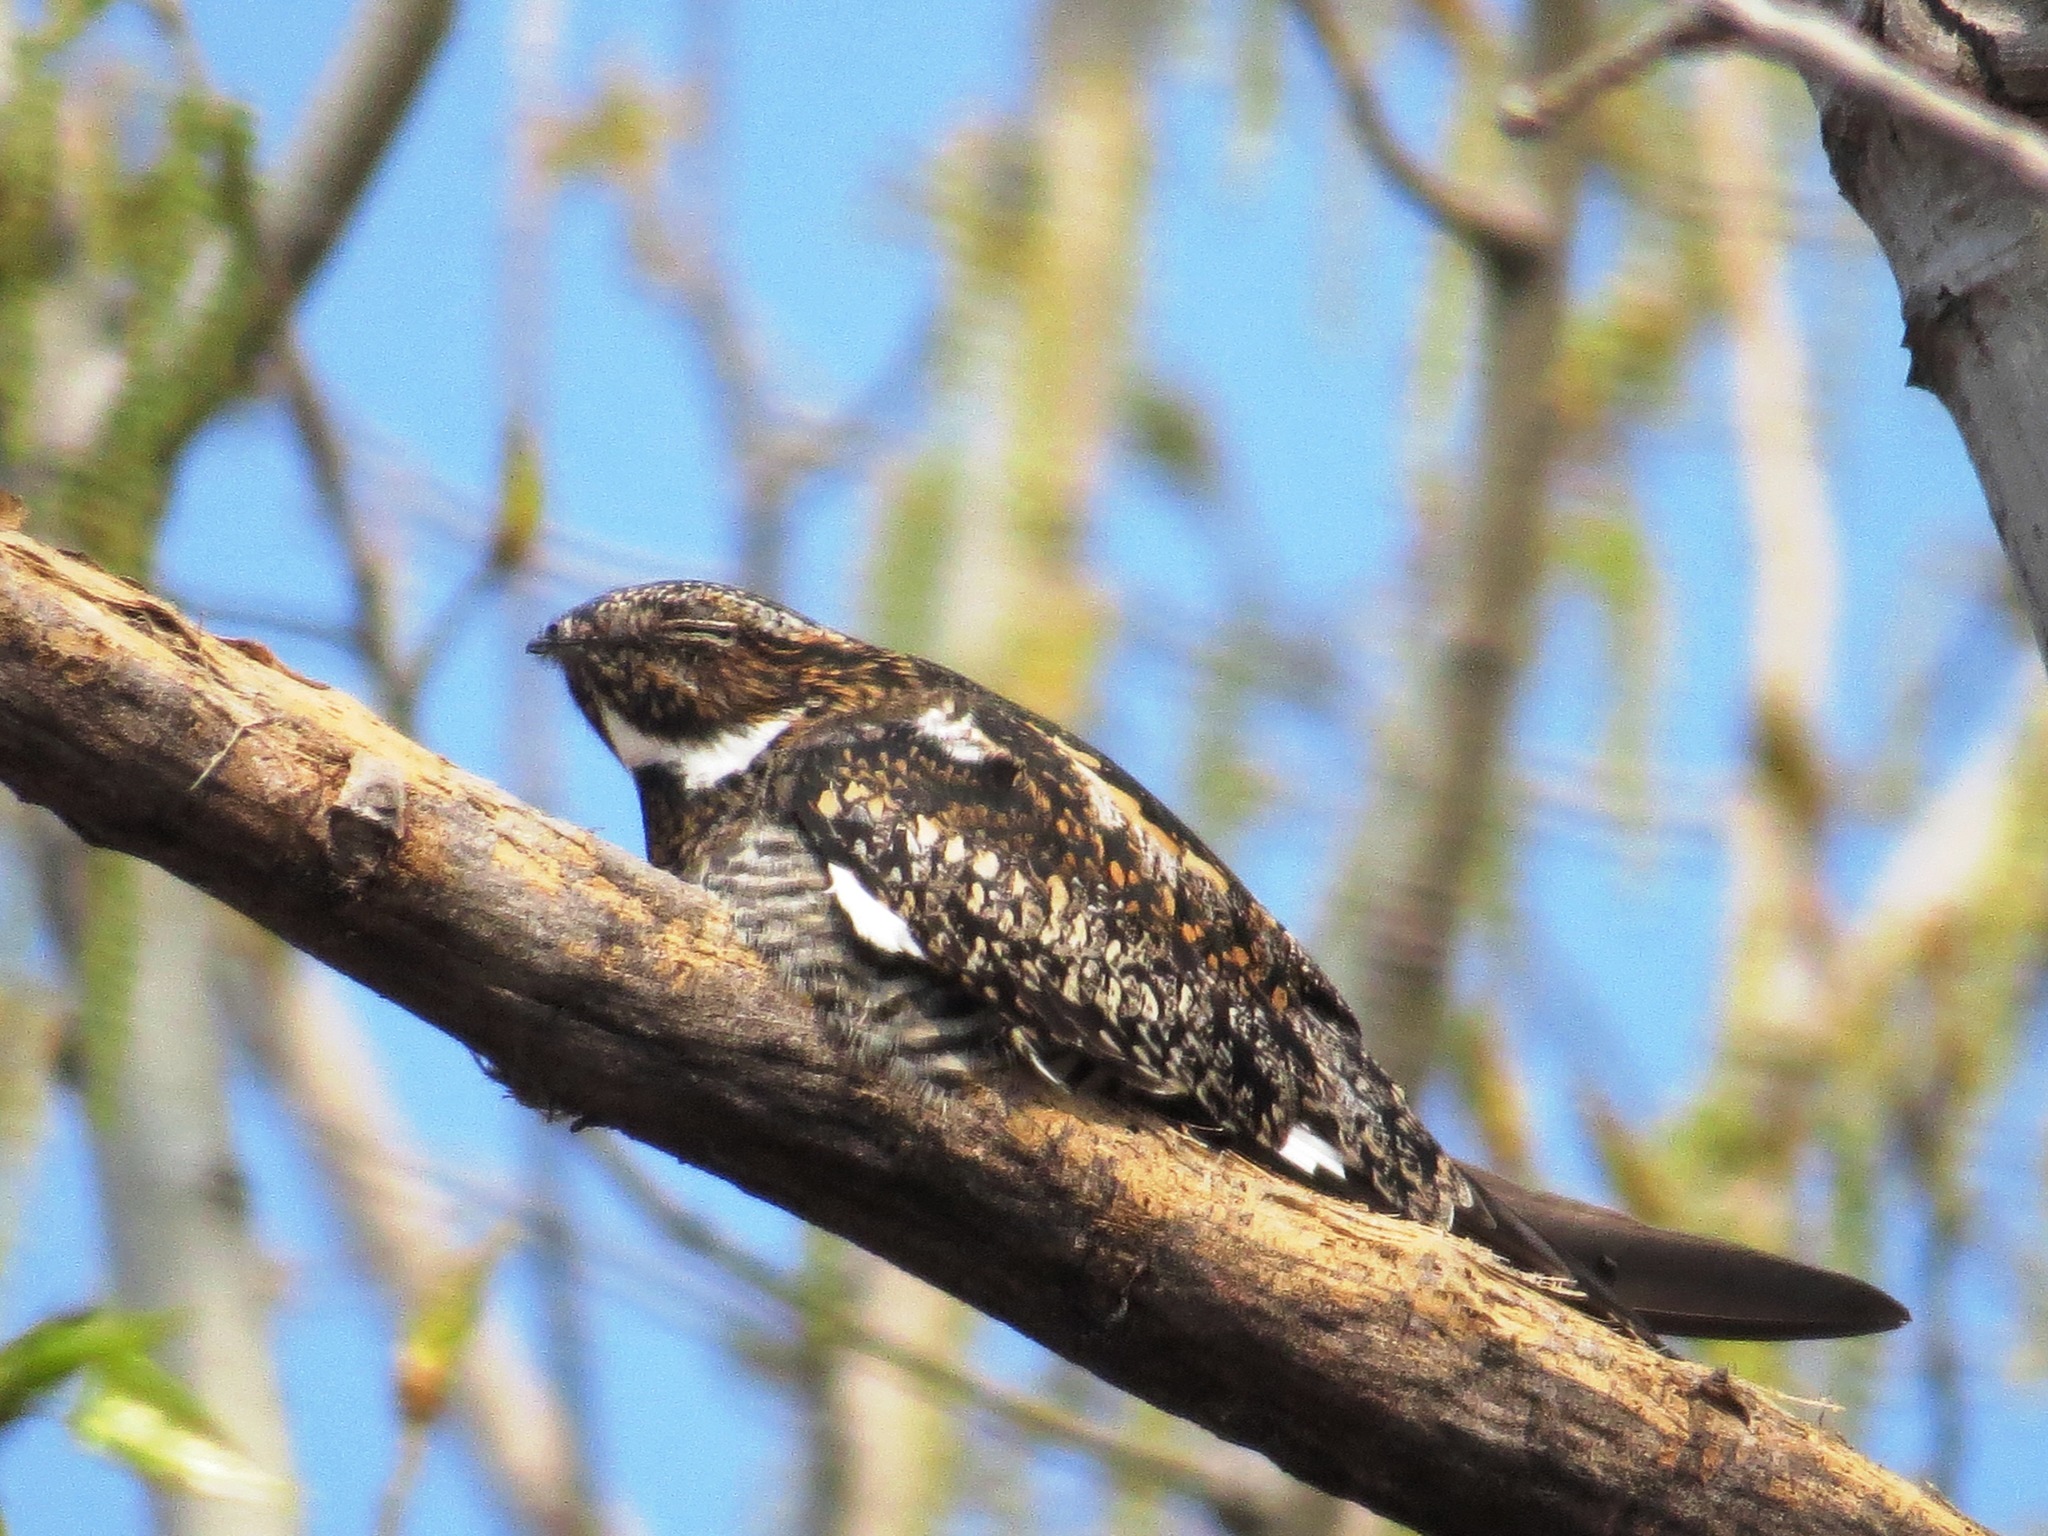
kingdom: Animalia
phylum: Chordata
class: Aves
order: Caprimulgiformes
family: Caprimulgidae
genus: Chordeiles
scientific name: Chordeiles minor
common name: Common nighthawk
